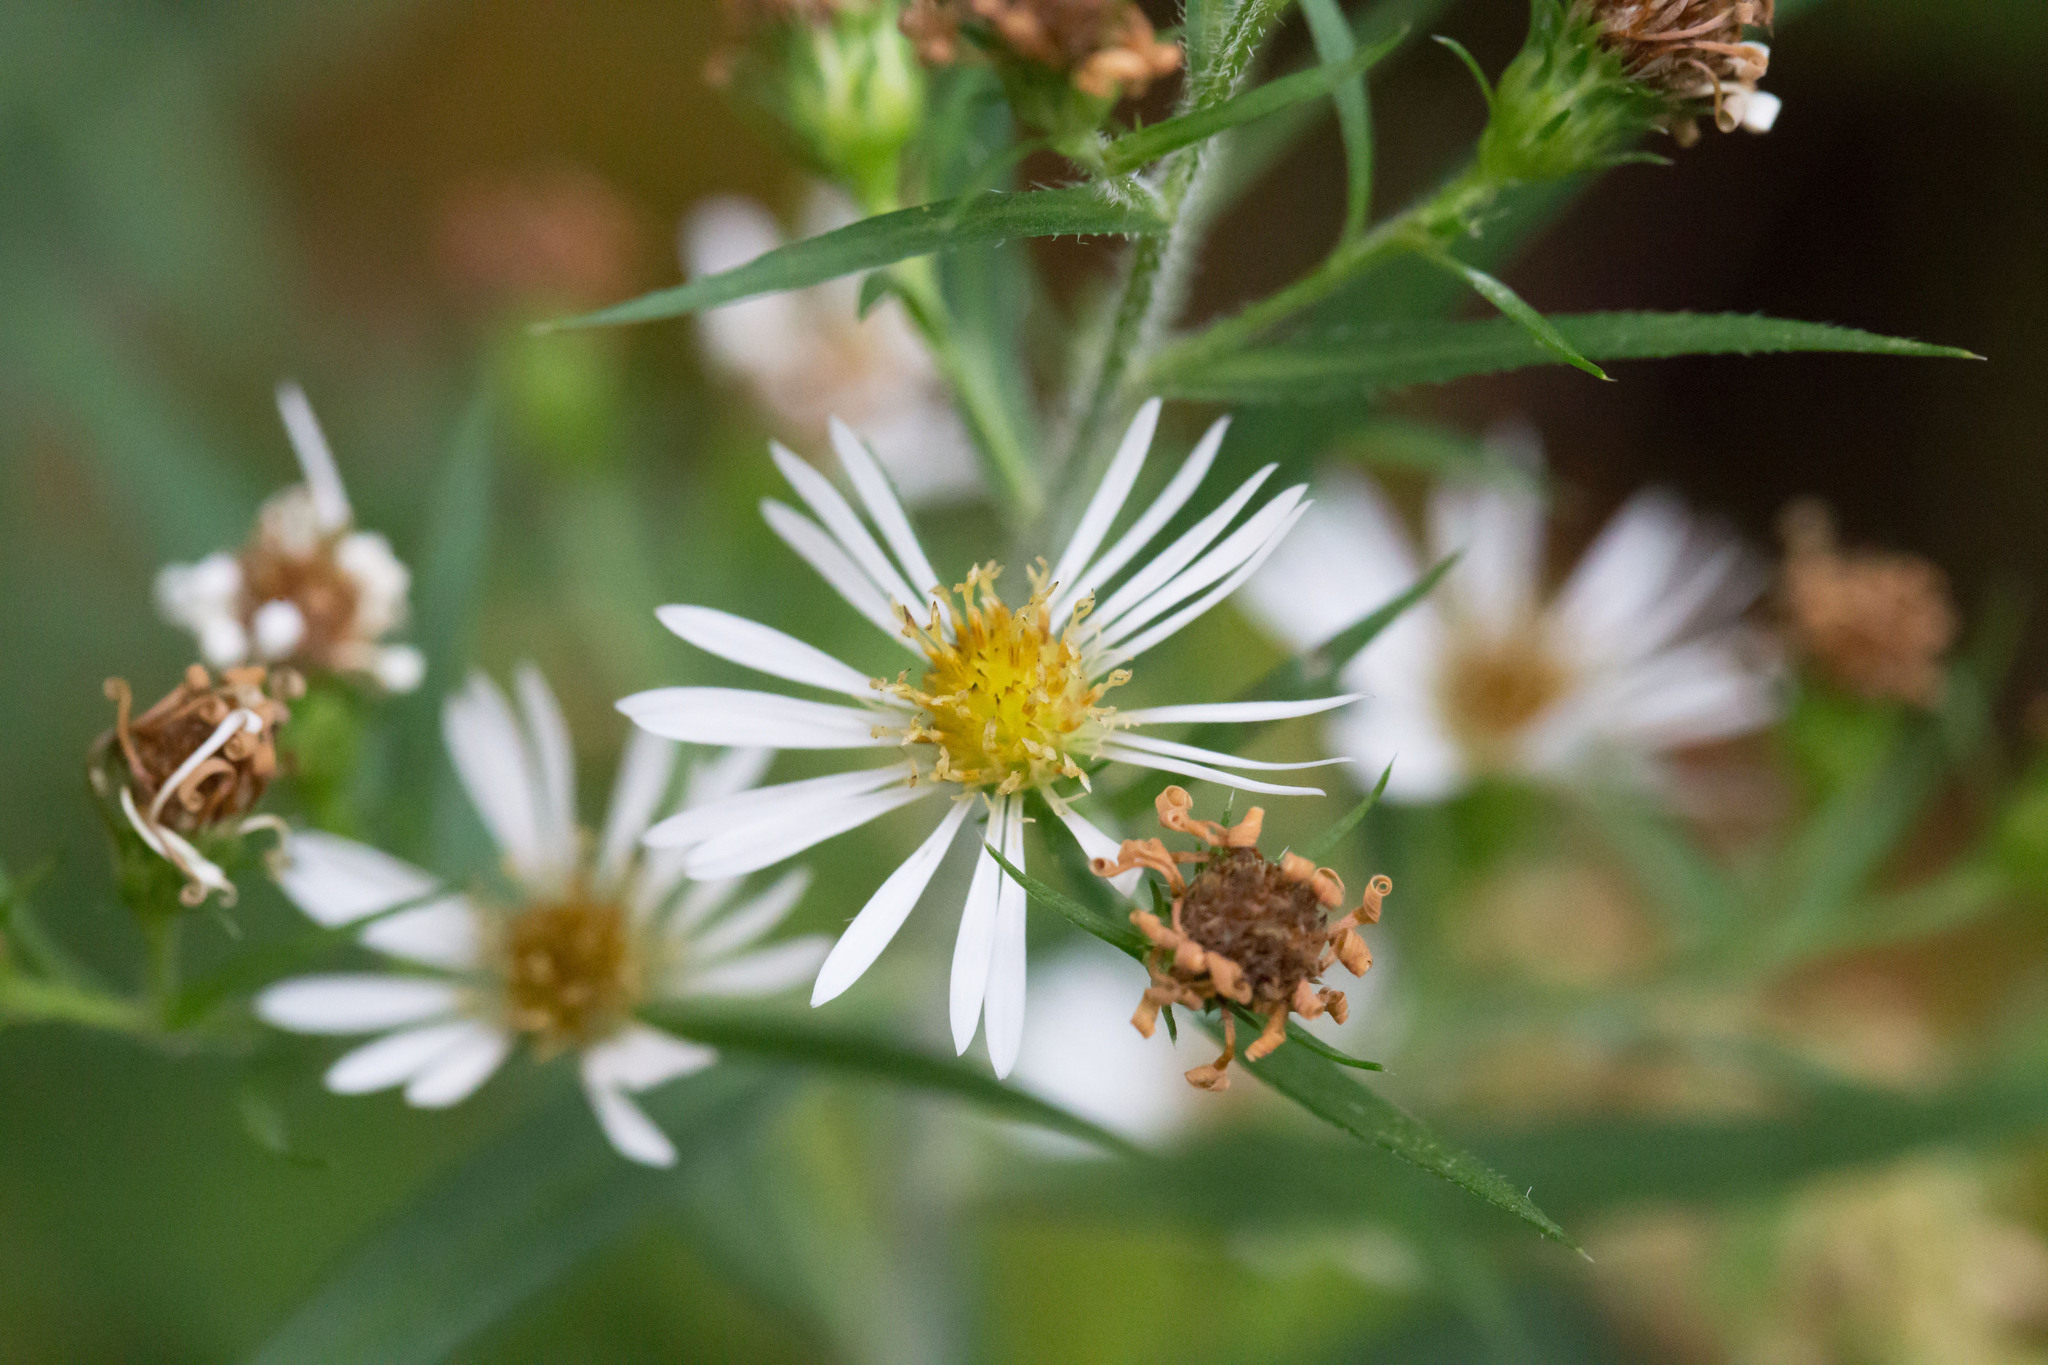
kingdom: Plantae
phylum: Tracheophyta
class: Magnoliopsida
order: Asterales
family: Asteraceae
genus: Symphyotrichum
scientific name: Symphyotrichum pilosum
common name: Awl aster
